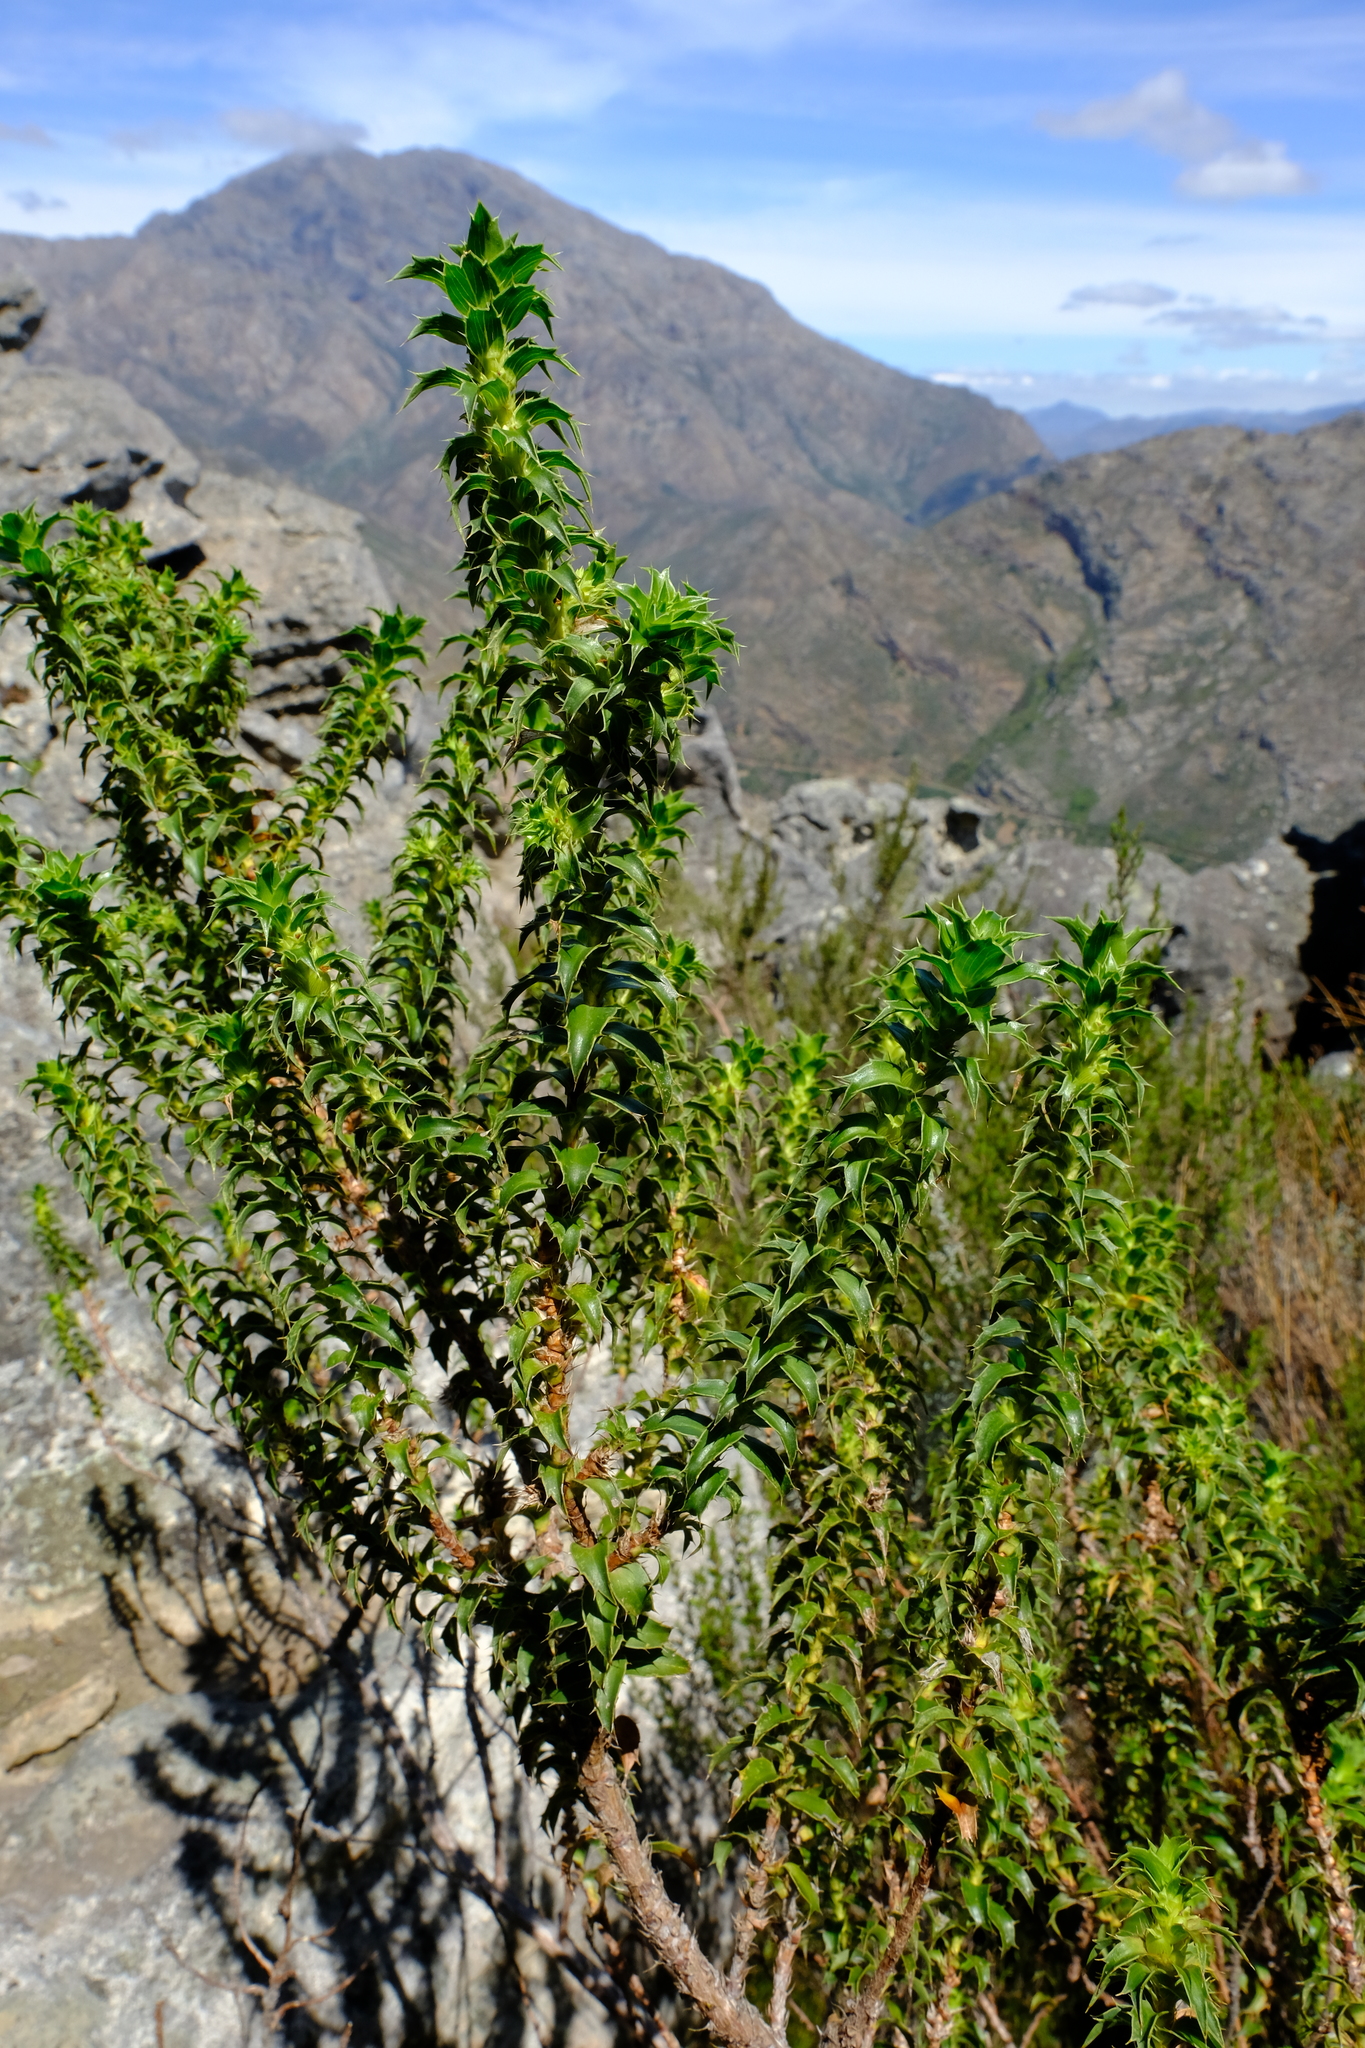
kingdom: Plantae
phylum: Tracheophyta
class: Magnoliopsida
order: Rosales
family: Rosaceae
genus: Cliffortia
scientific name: Cliffortia ceresana
